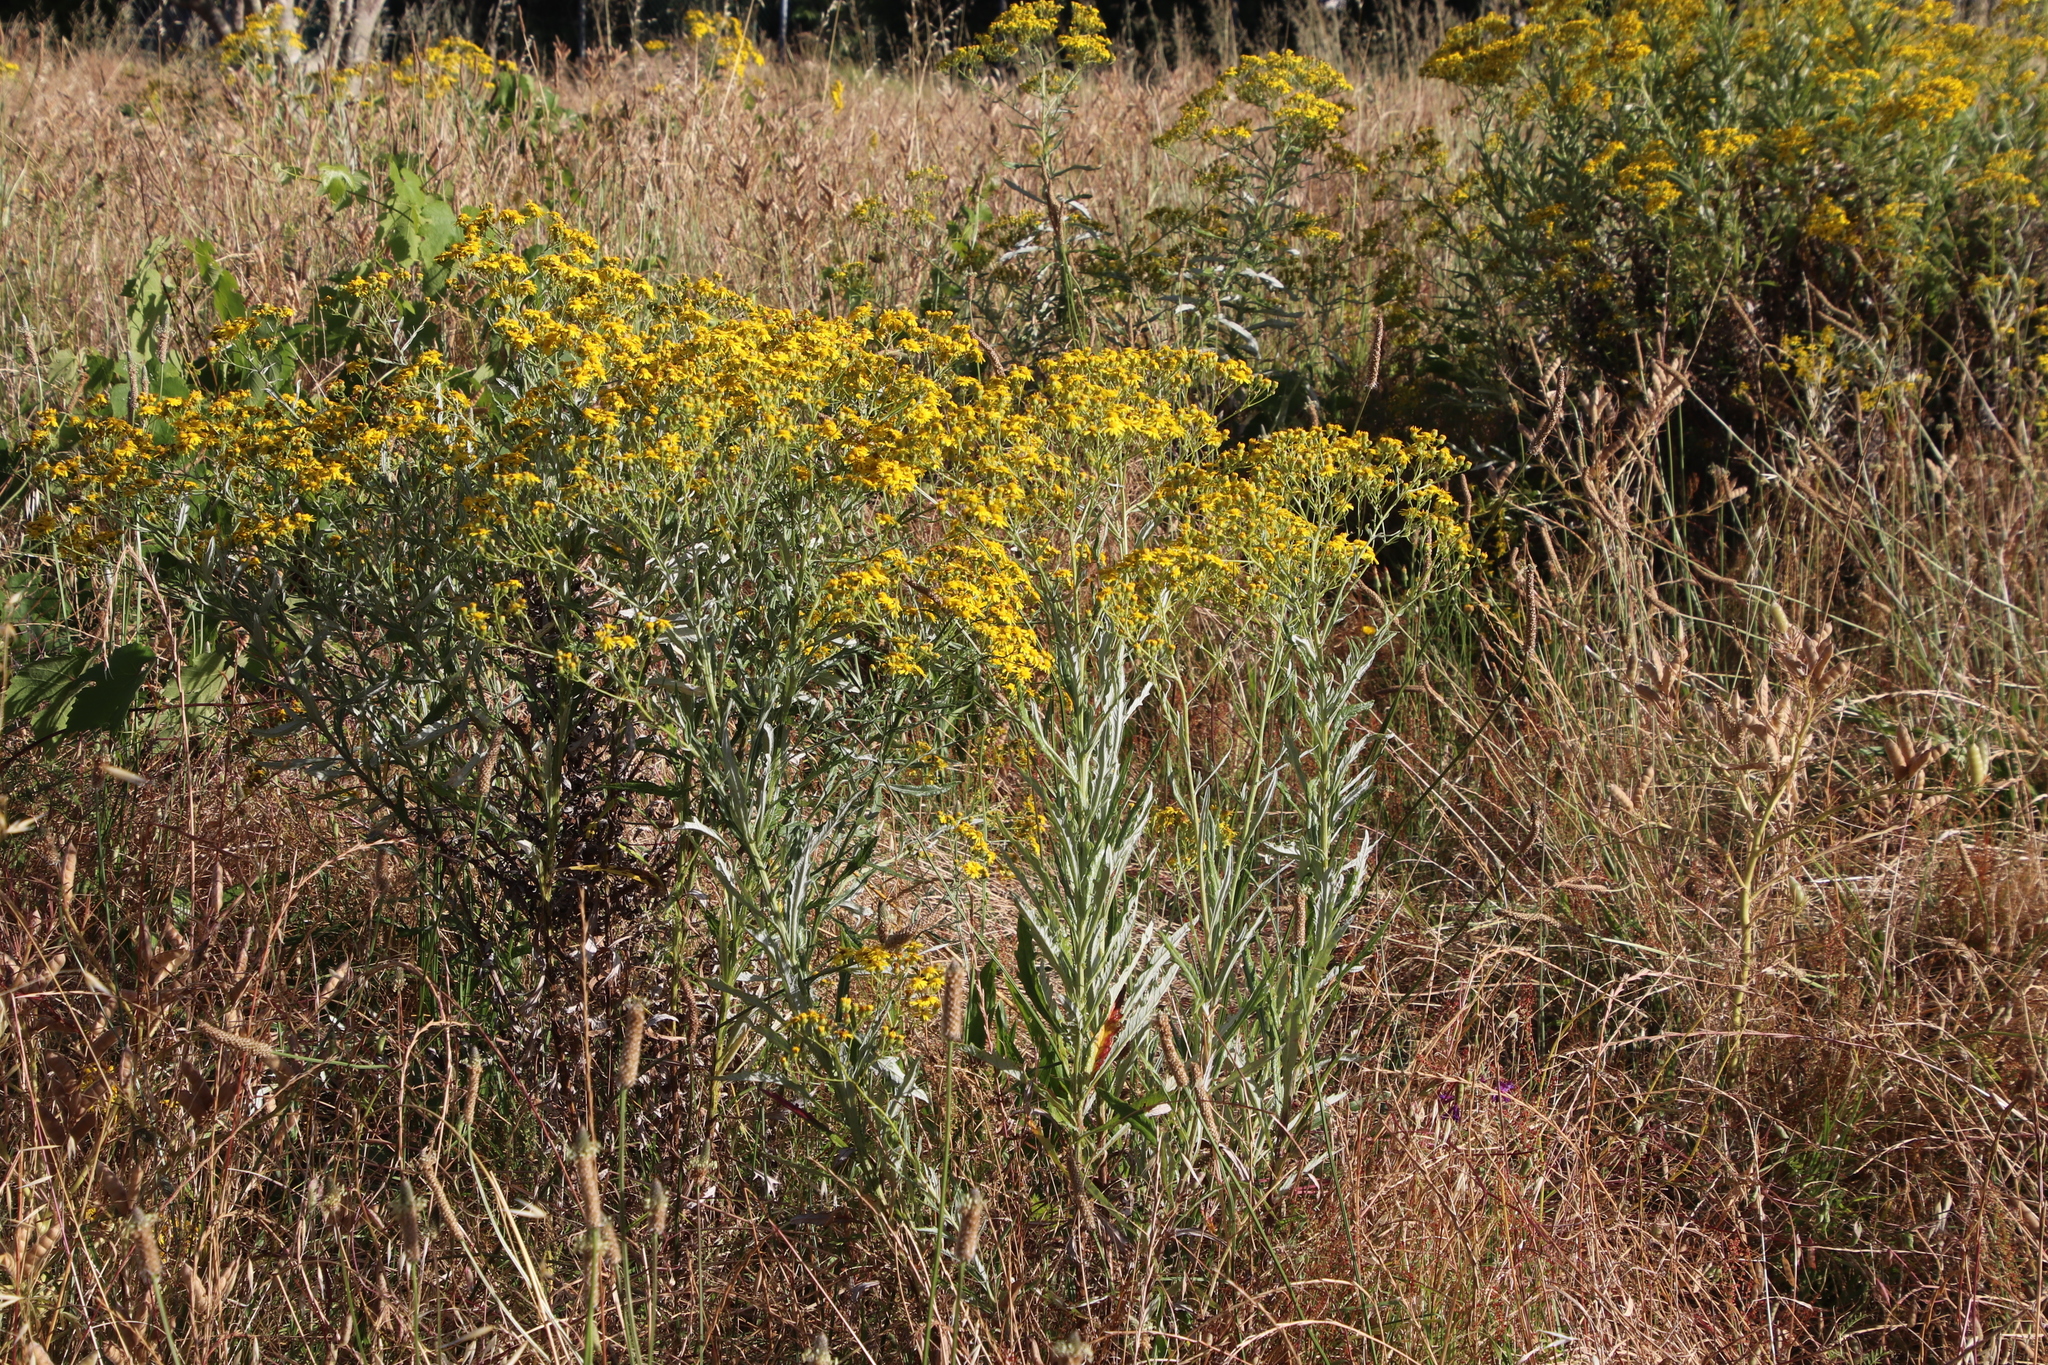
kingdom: Plantae
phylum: Tracheophyta
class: Magnoliopsida
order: Asterales
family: Asteraceae
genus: Senecio
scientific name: Senecio pterophorus
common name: Shoddy ragwort
